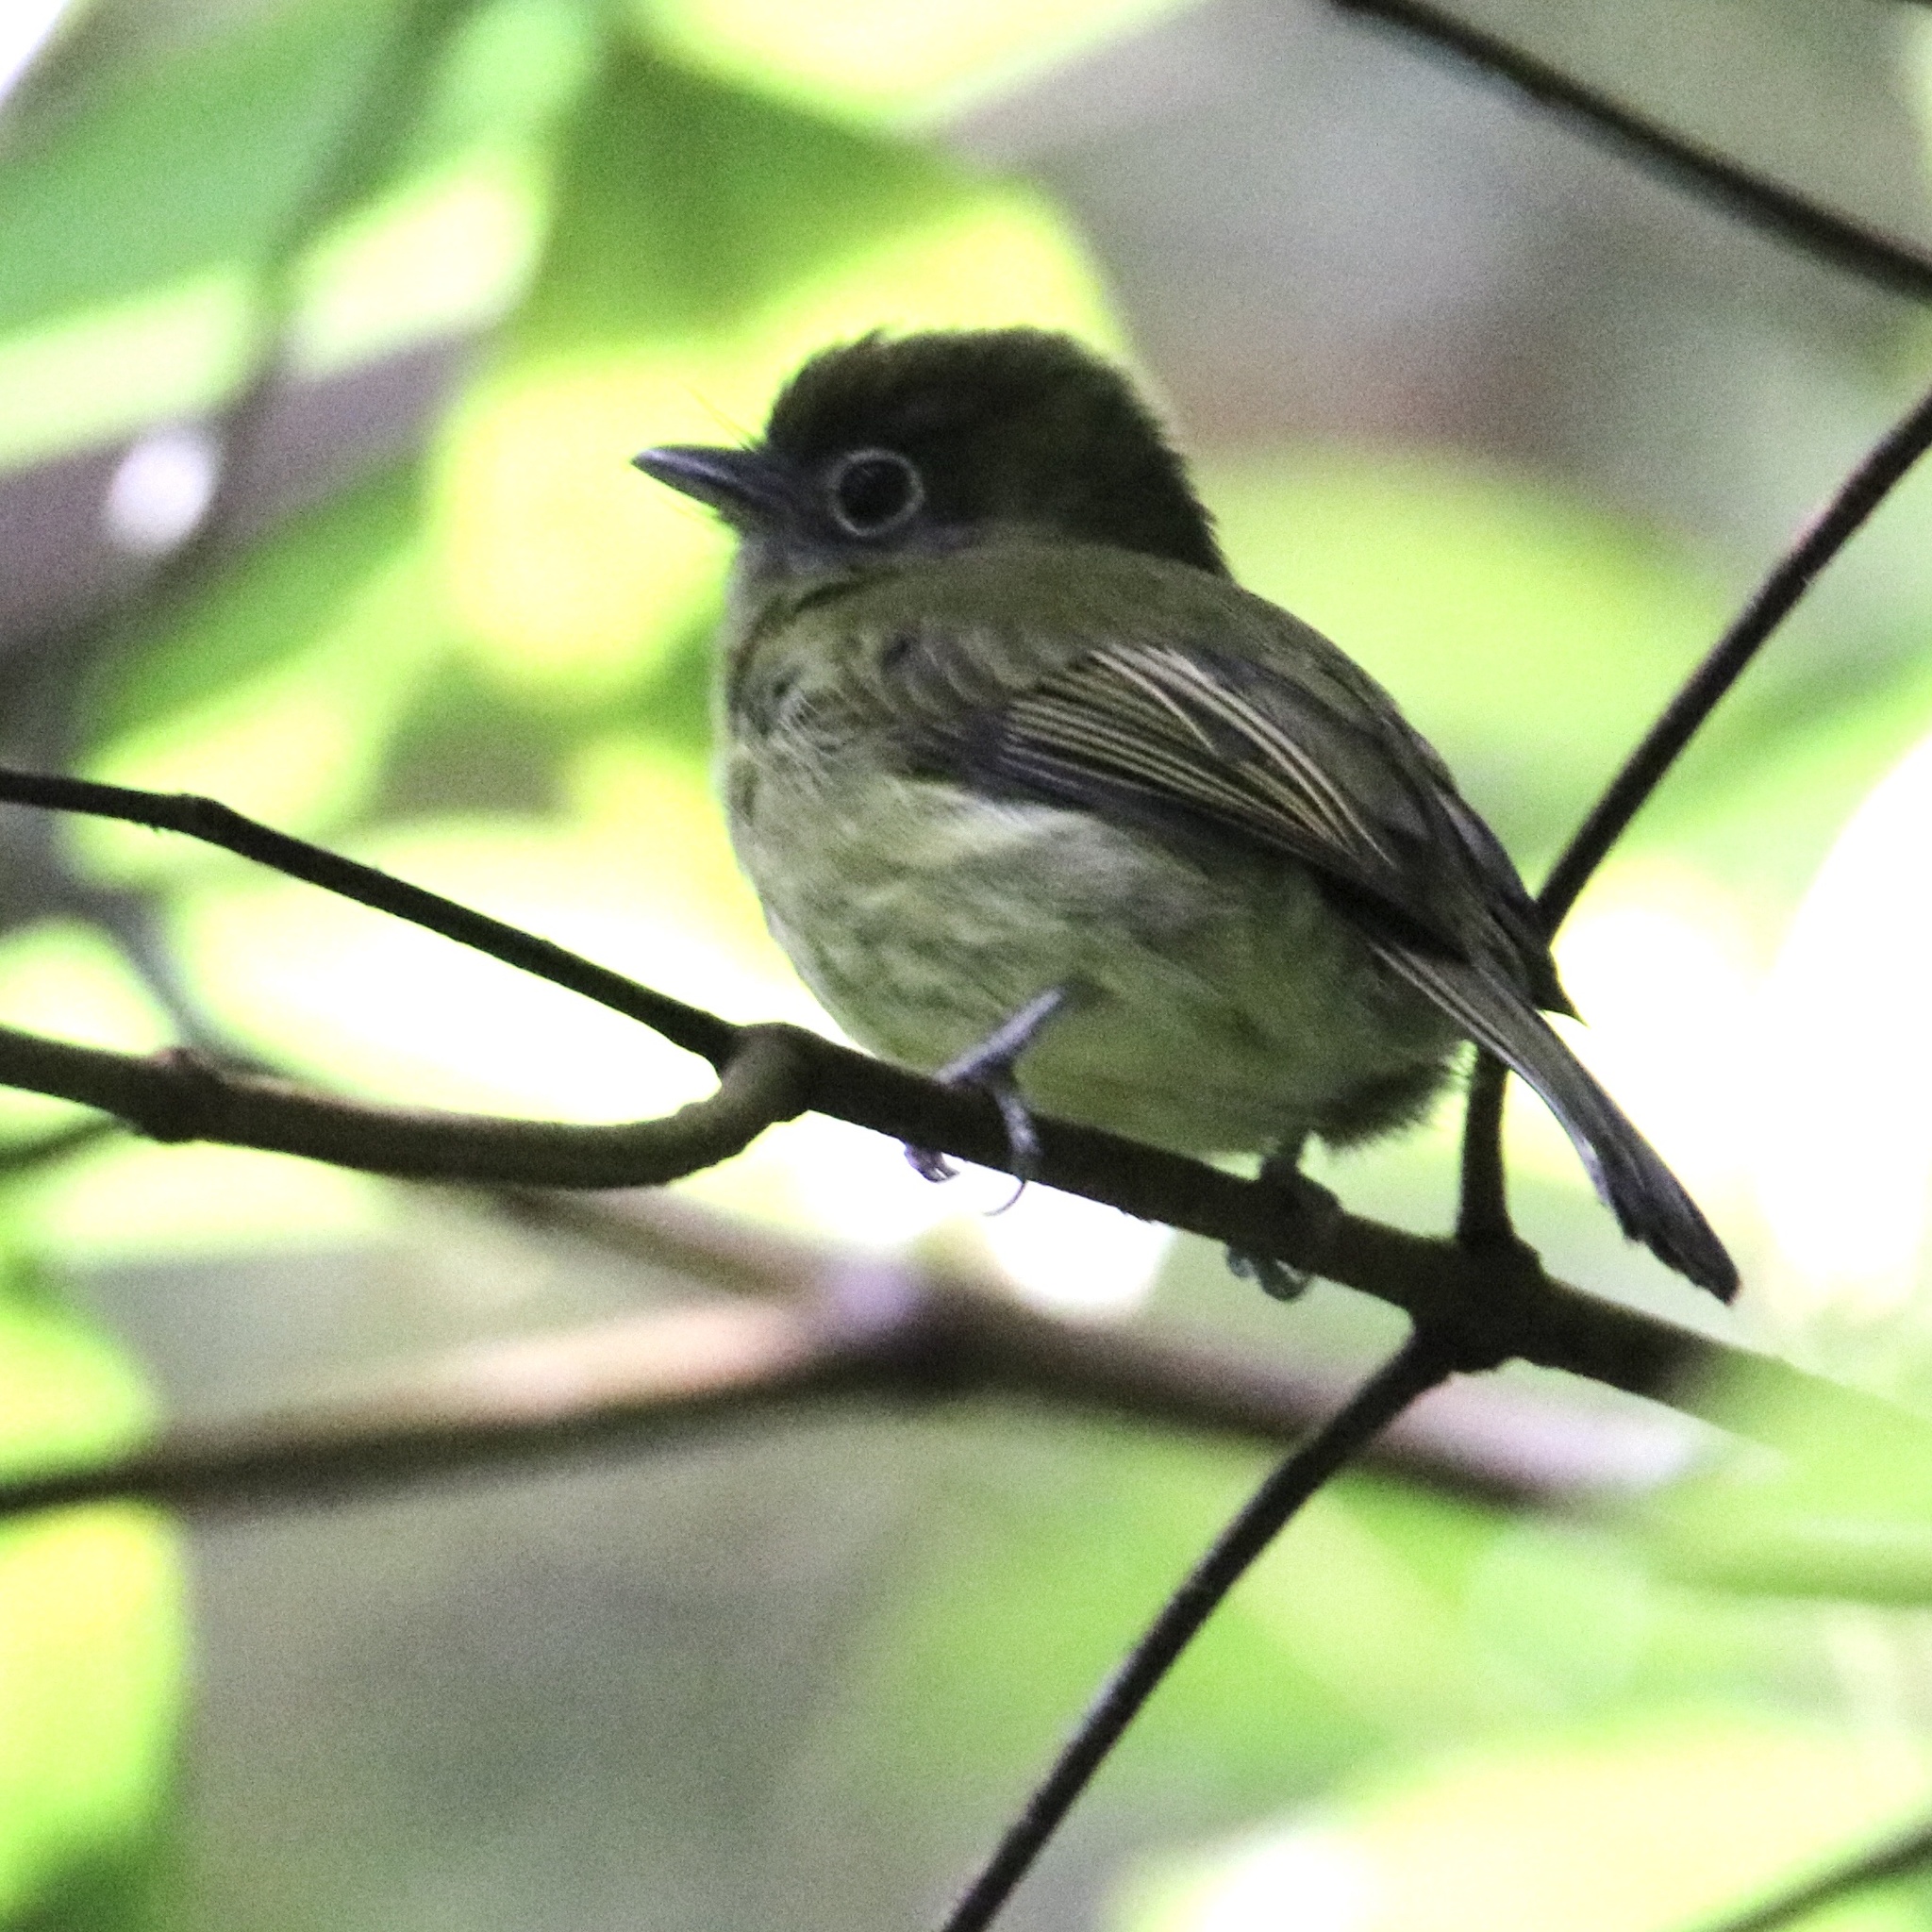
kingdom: Animalia
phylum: Chordata
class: Aves
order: Passeriformes
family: Tyrannidae
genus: Rhynchocyclus
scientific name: Rhynchocyclus brevirostris
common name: Eye-ringed flatbill
